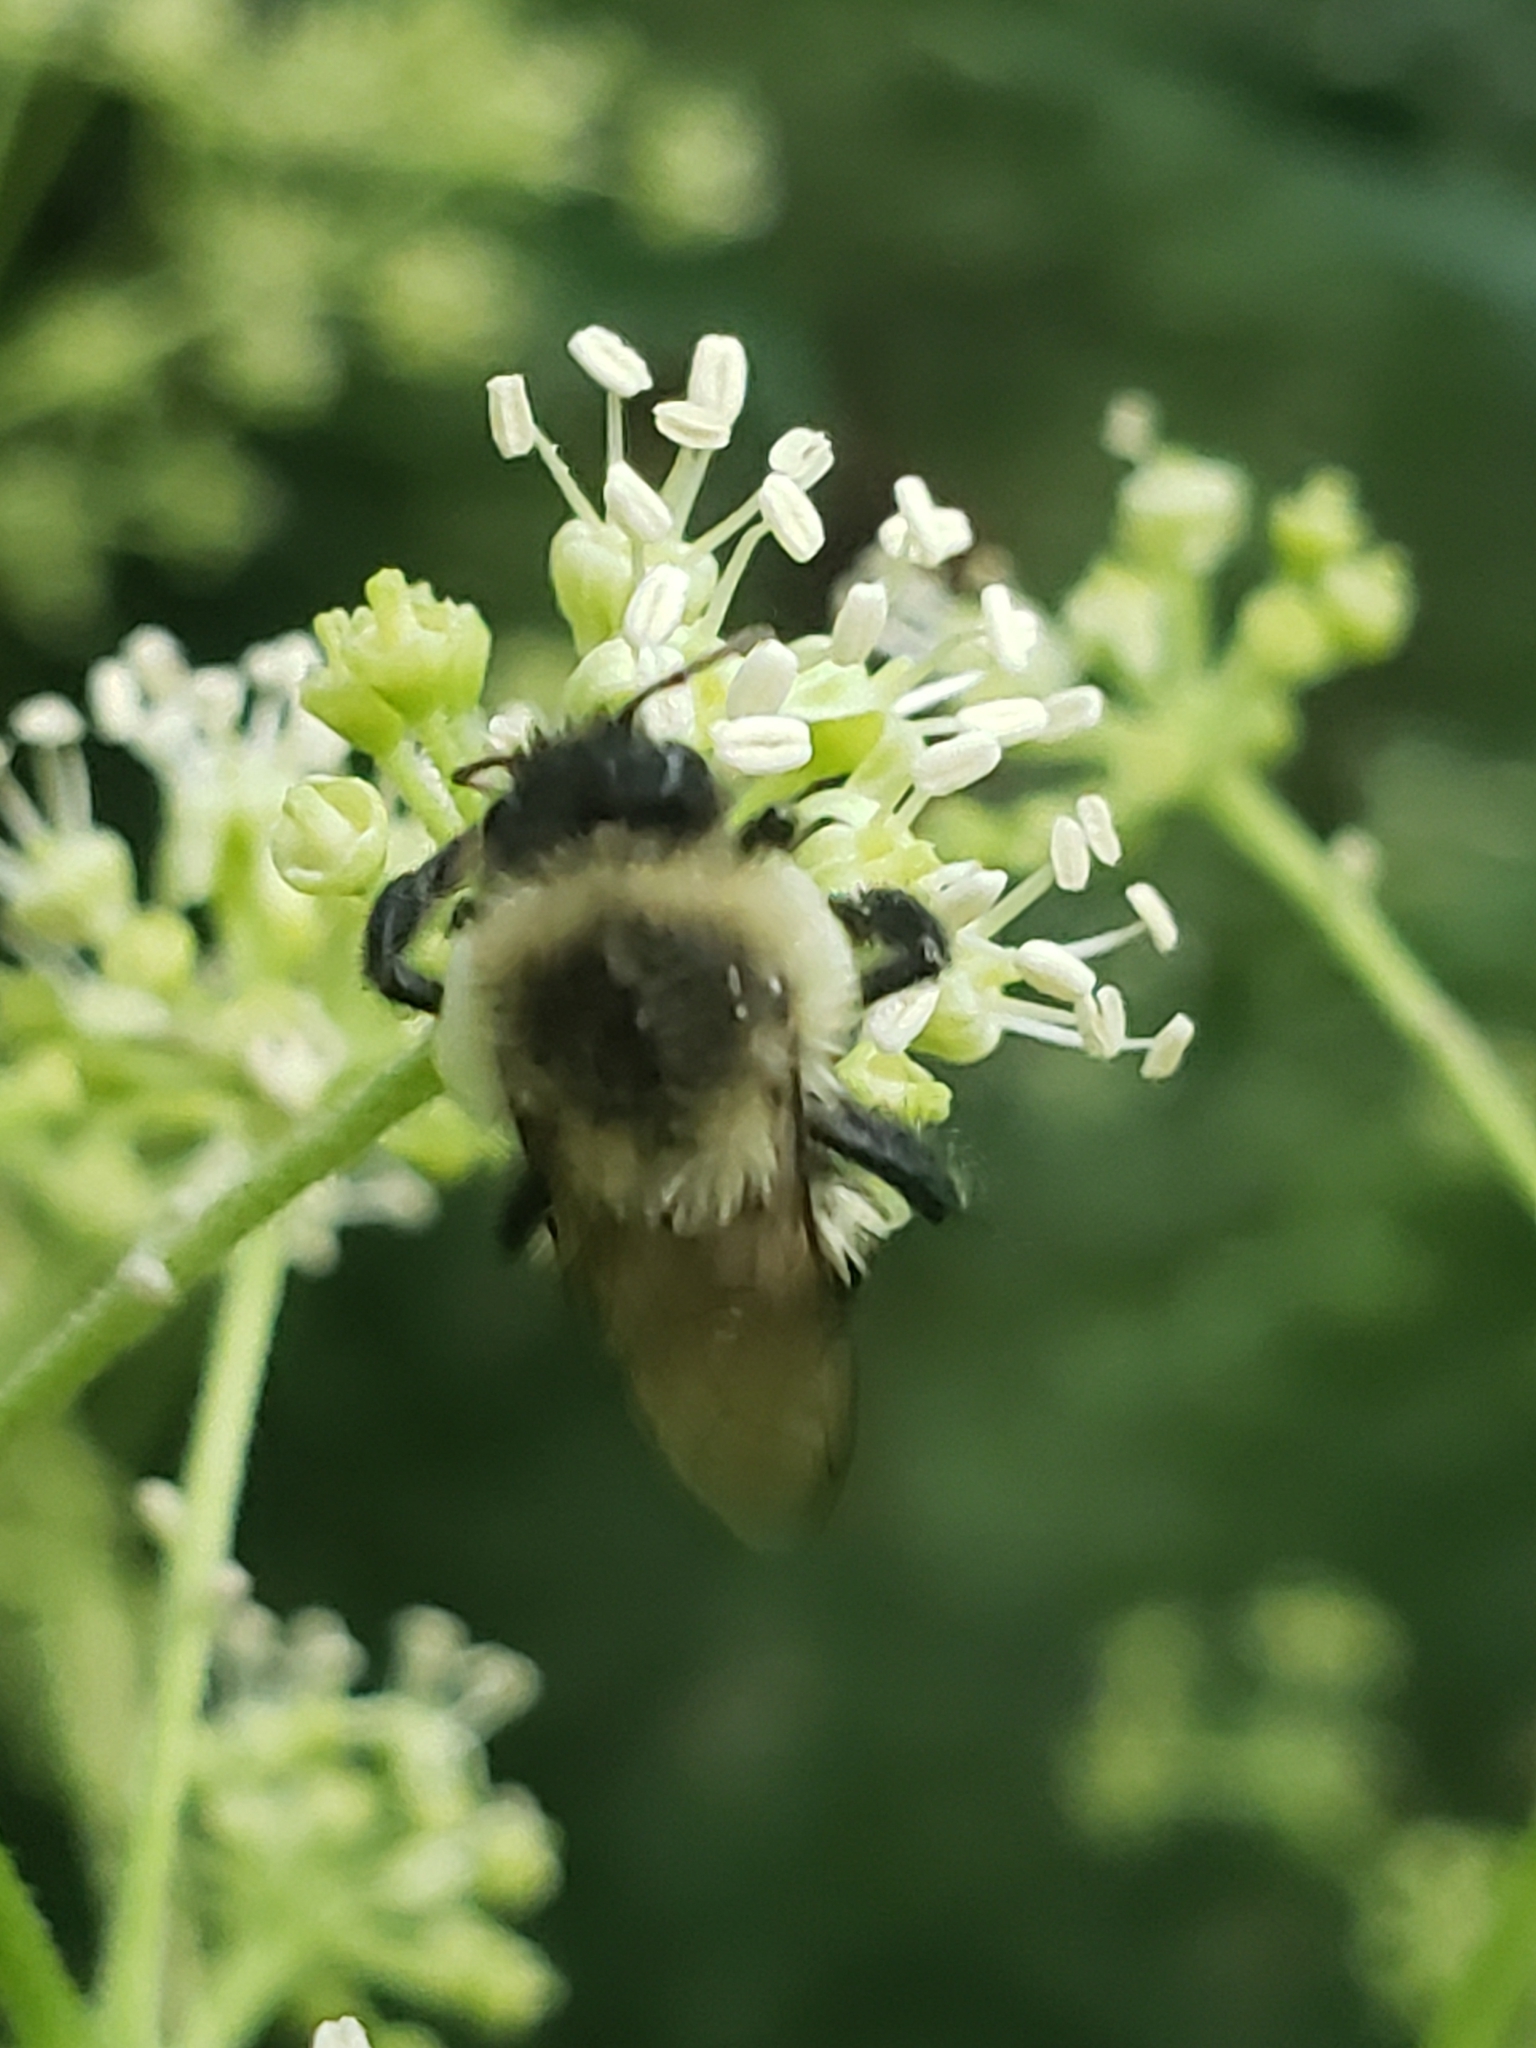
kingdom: Animalia
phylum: Arthropoda
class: Insecta
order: Hymenoptera
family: Apidae
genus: Bombus
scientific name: Bombus impatiens
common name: Common eastern bumble bee
